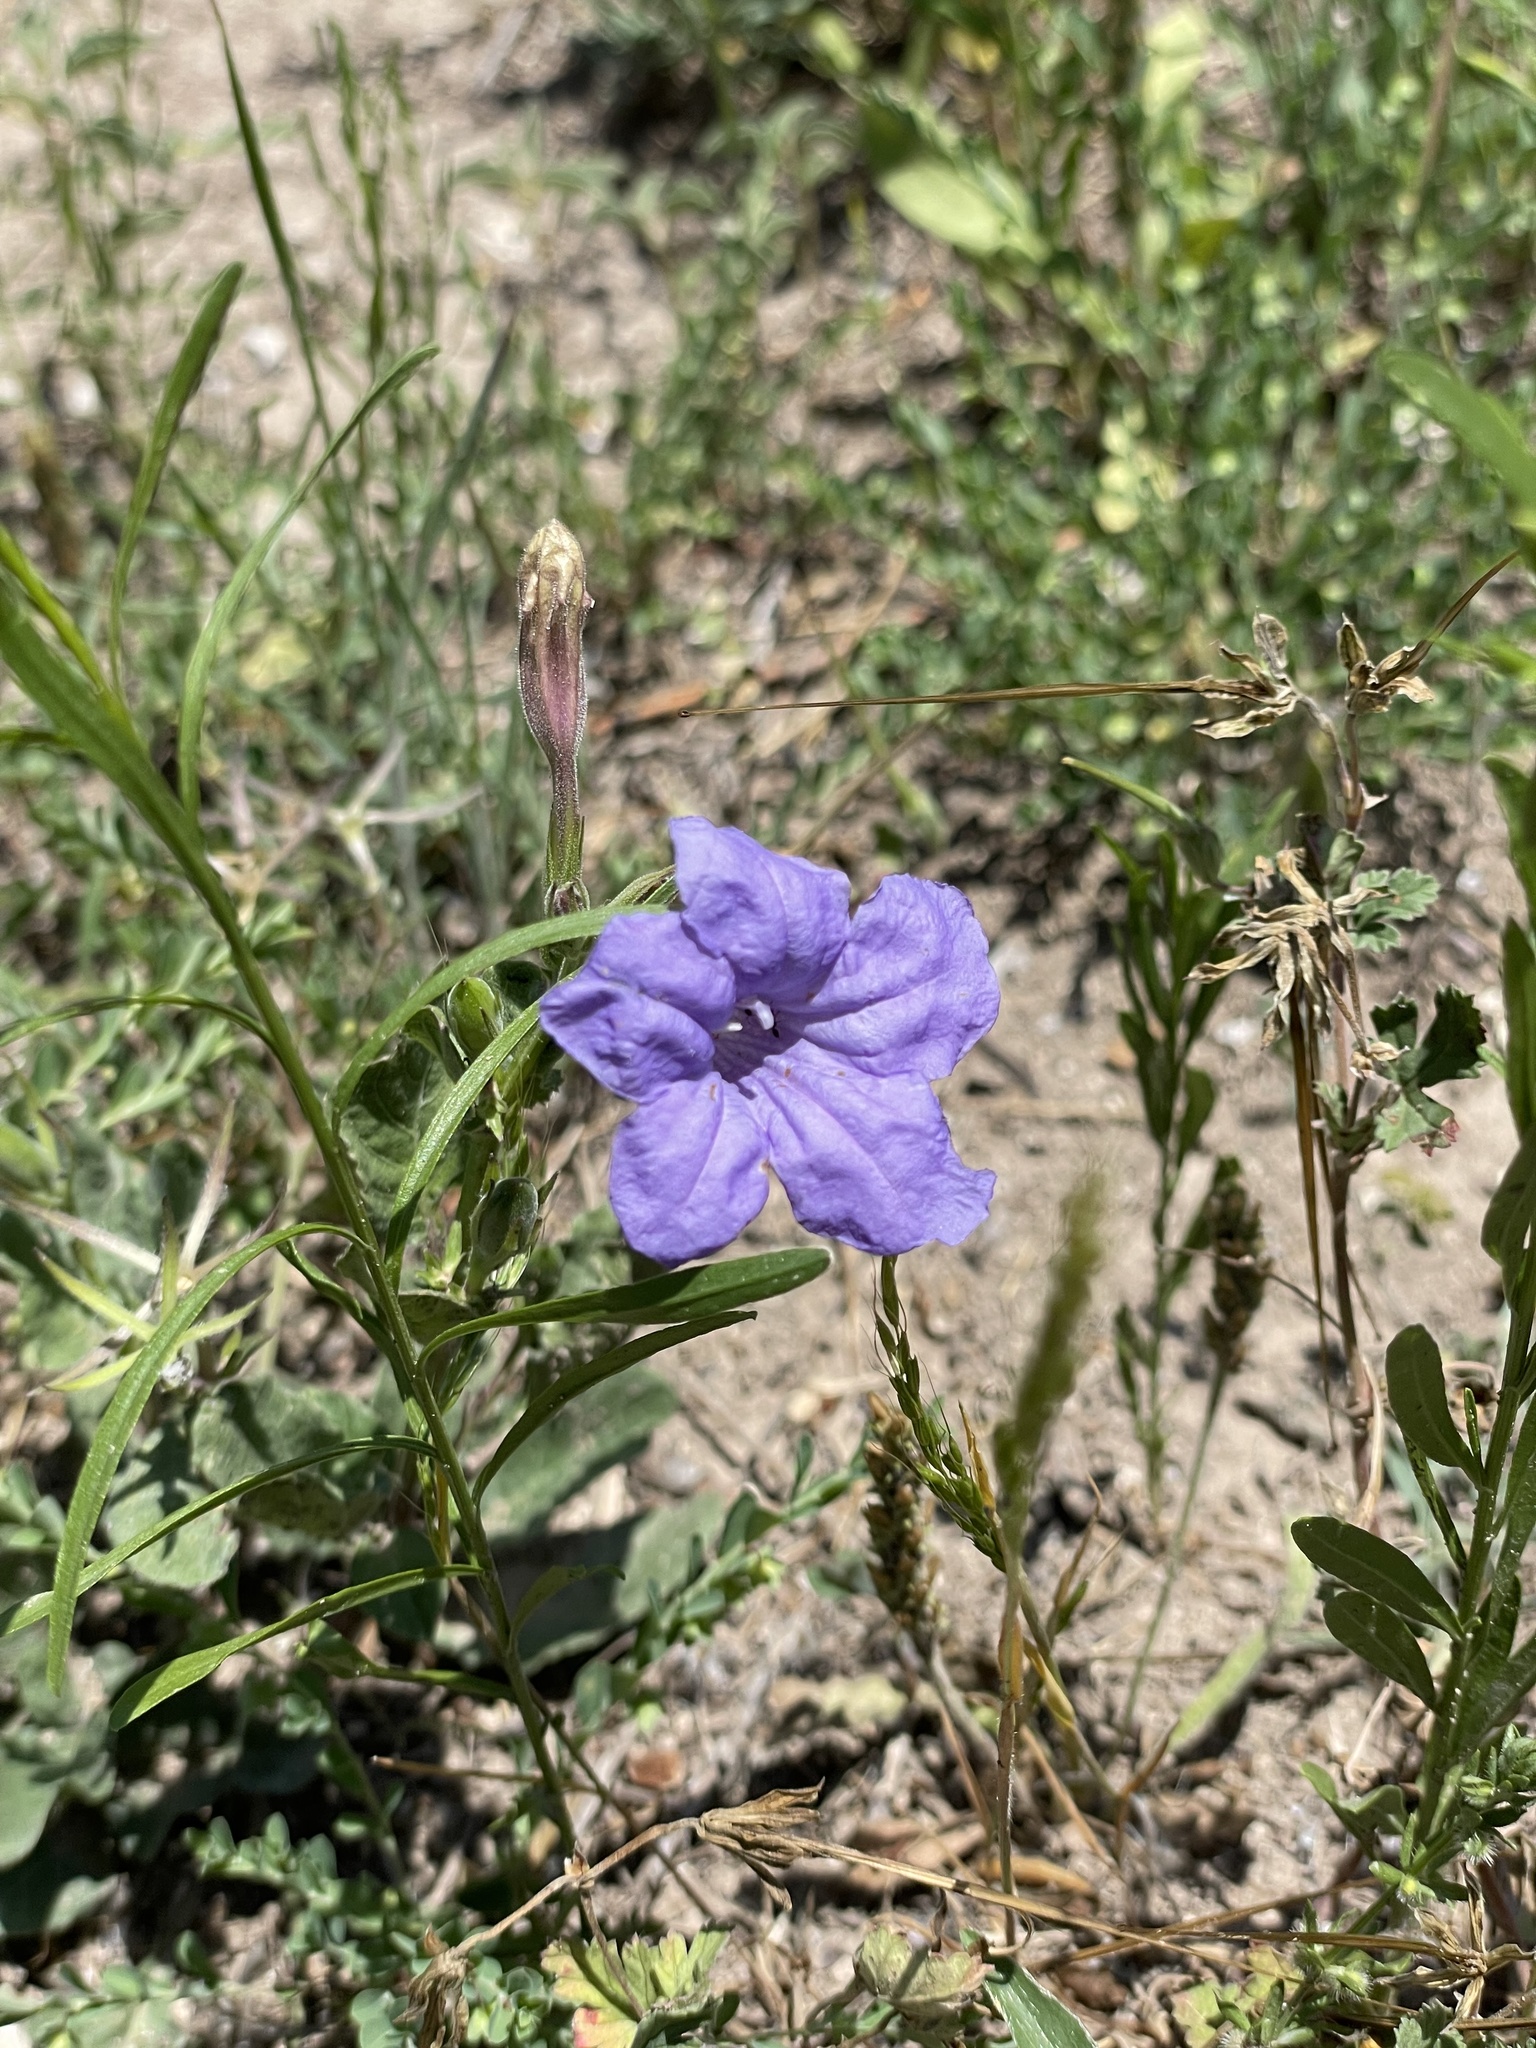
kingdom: Plantae
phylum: Tracheophyta
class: Magnoliopsida
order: Lamiales
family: Acanthaceae
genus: Ruellia
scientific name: Ruellia ciliatiflora
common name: Hairyflower wild petunia
